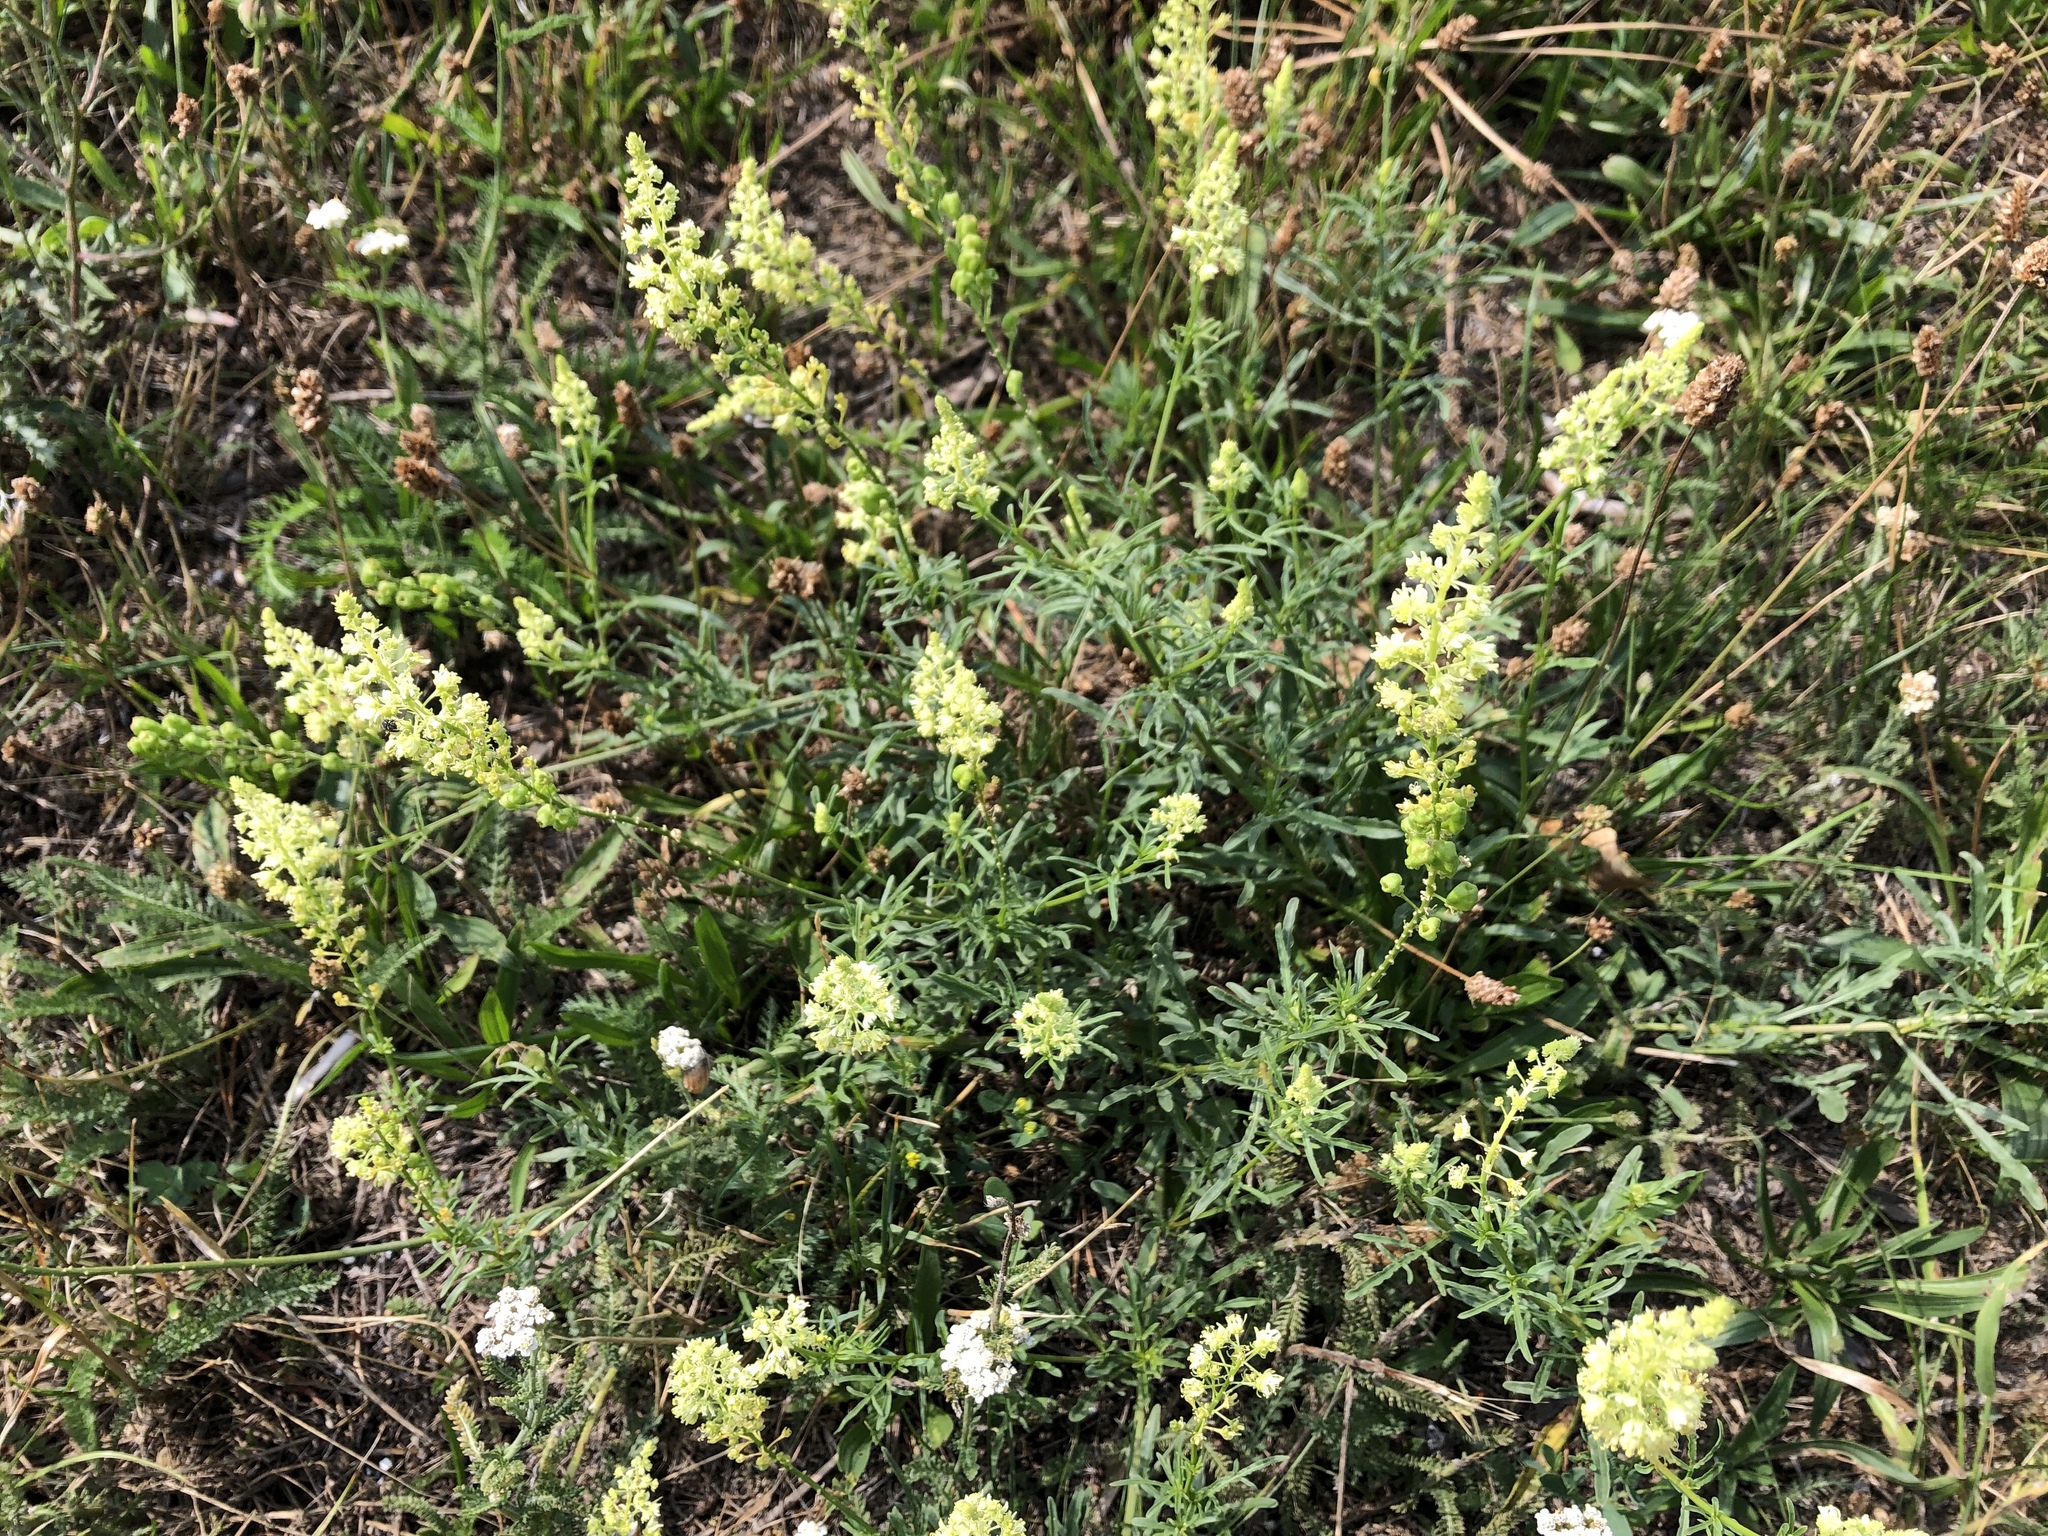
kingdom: Plantae
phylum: Tracheophyta
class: Magnoliopsida
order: Brassicales
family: Resedaceae
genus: Reseda
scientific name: Reseda lutea
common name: Wild mignonette
